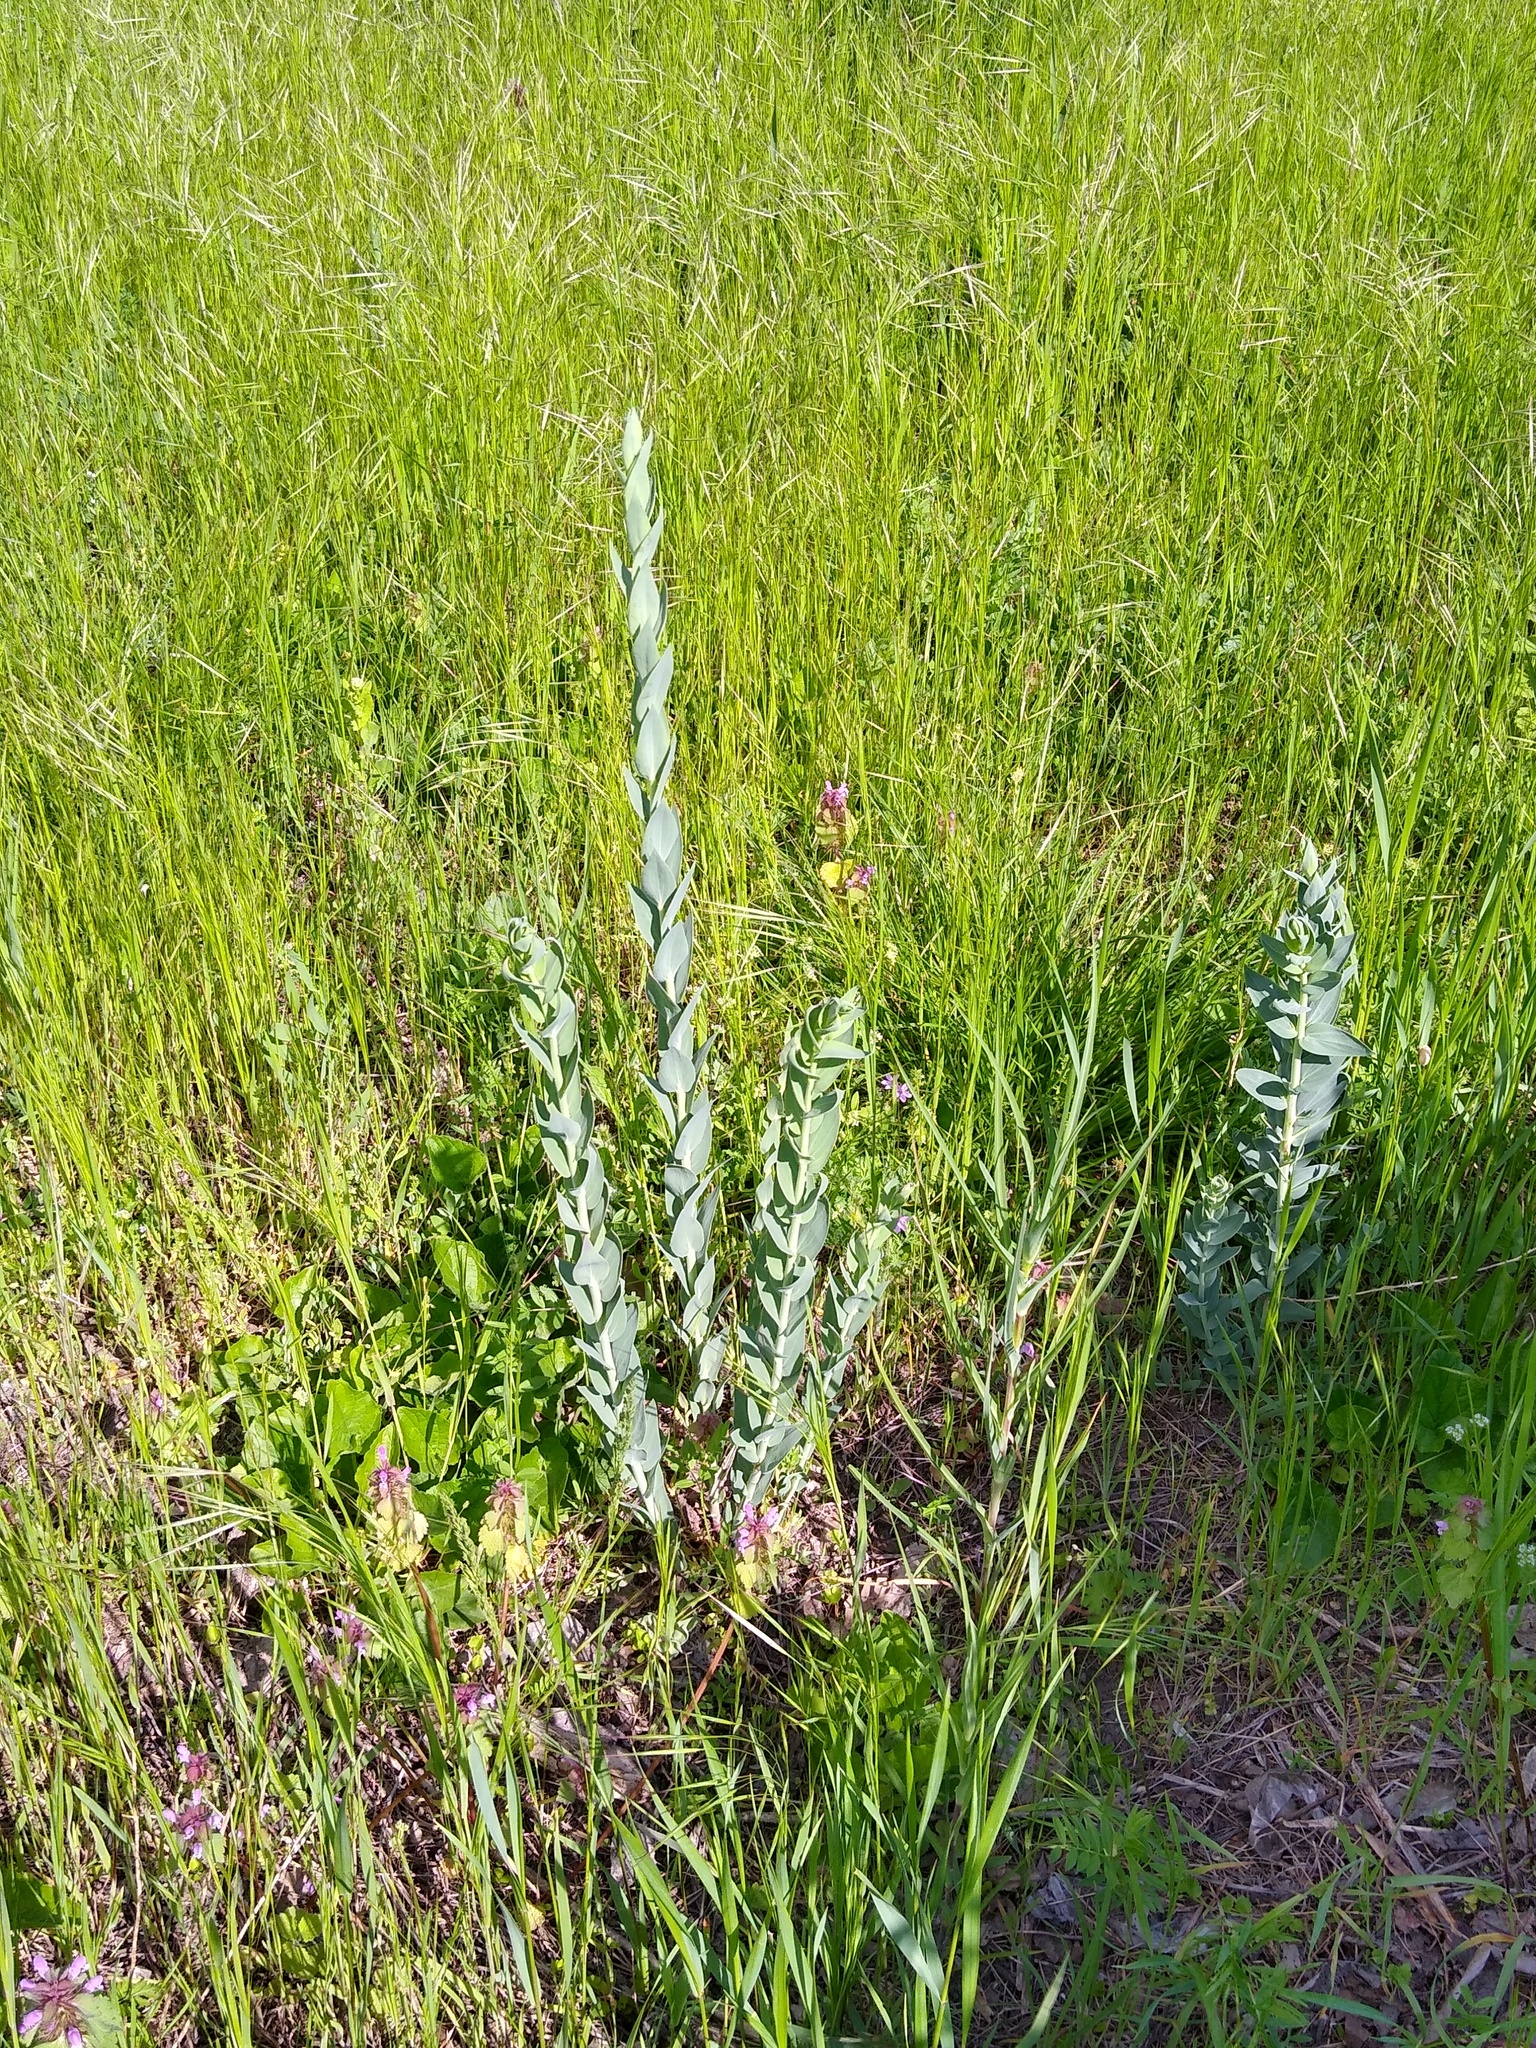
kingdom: Plantae
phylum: Tracheophyta
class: Magnoliopsida
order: Lamiales
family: Plantaginaceae
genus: Linaria
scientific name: Linaria genistifolia
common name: Broomleaf toadflax
